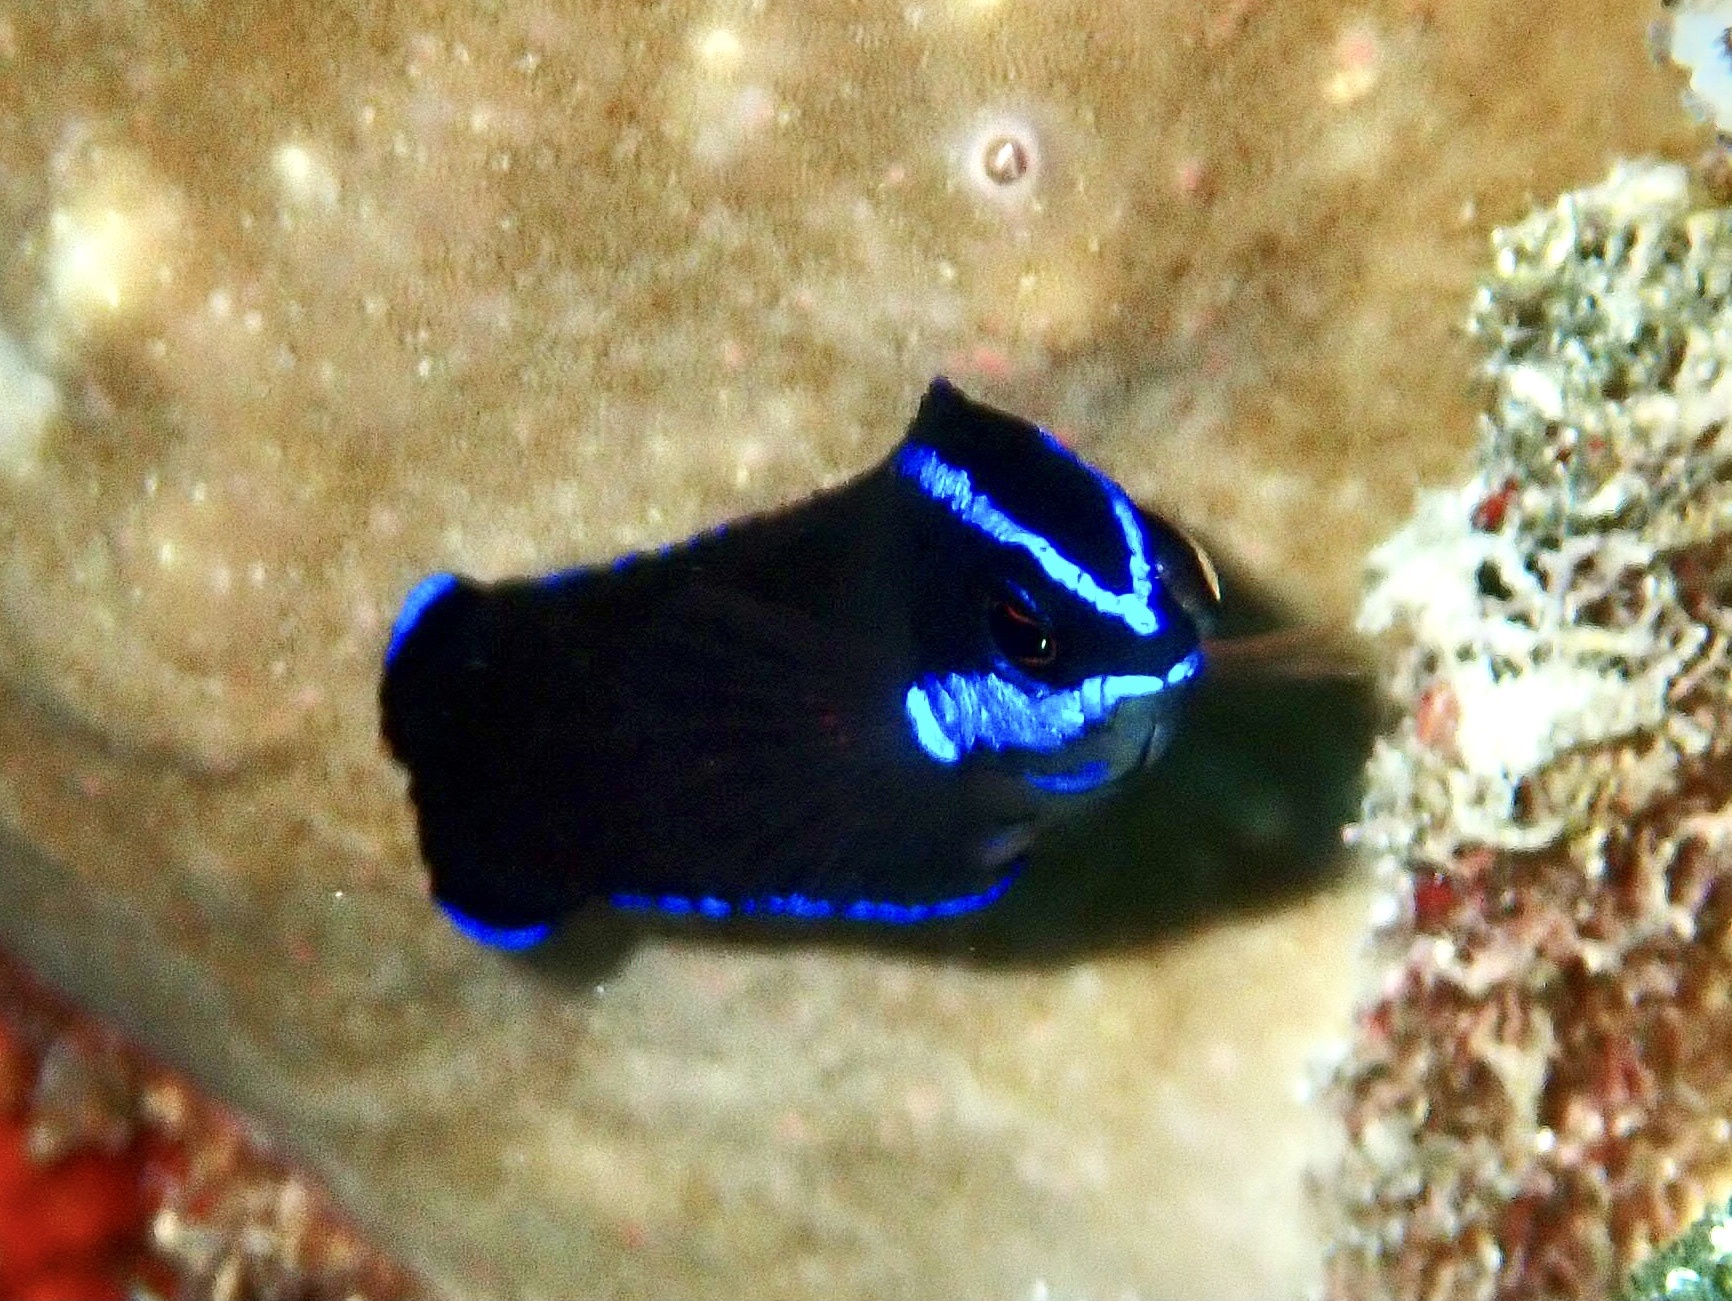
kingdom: Animalia
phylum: Chordata
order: Perciformes
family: Pseudochromidae
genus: Pseudochromis
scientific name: Pseudochromis springeri
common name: Blue-striped dottyback
